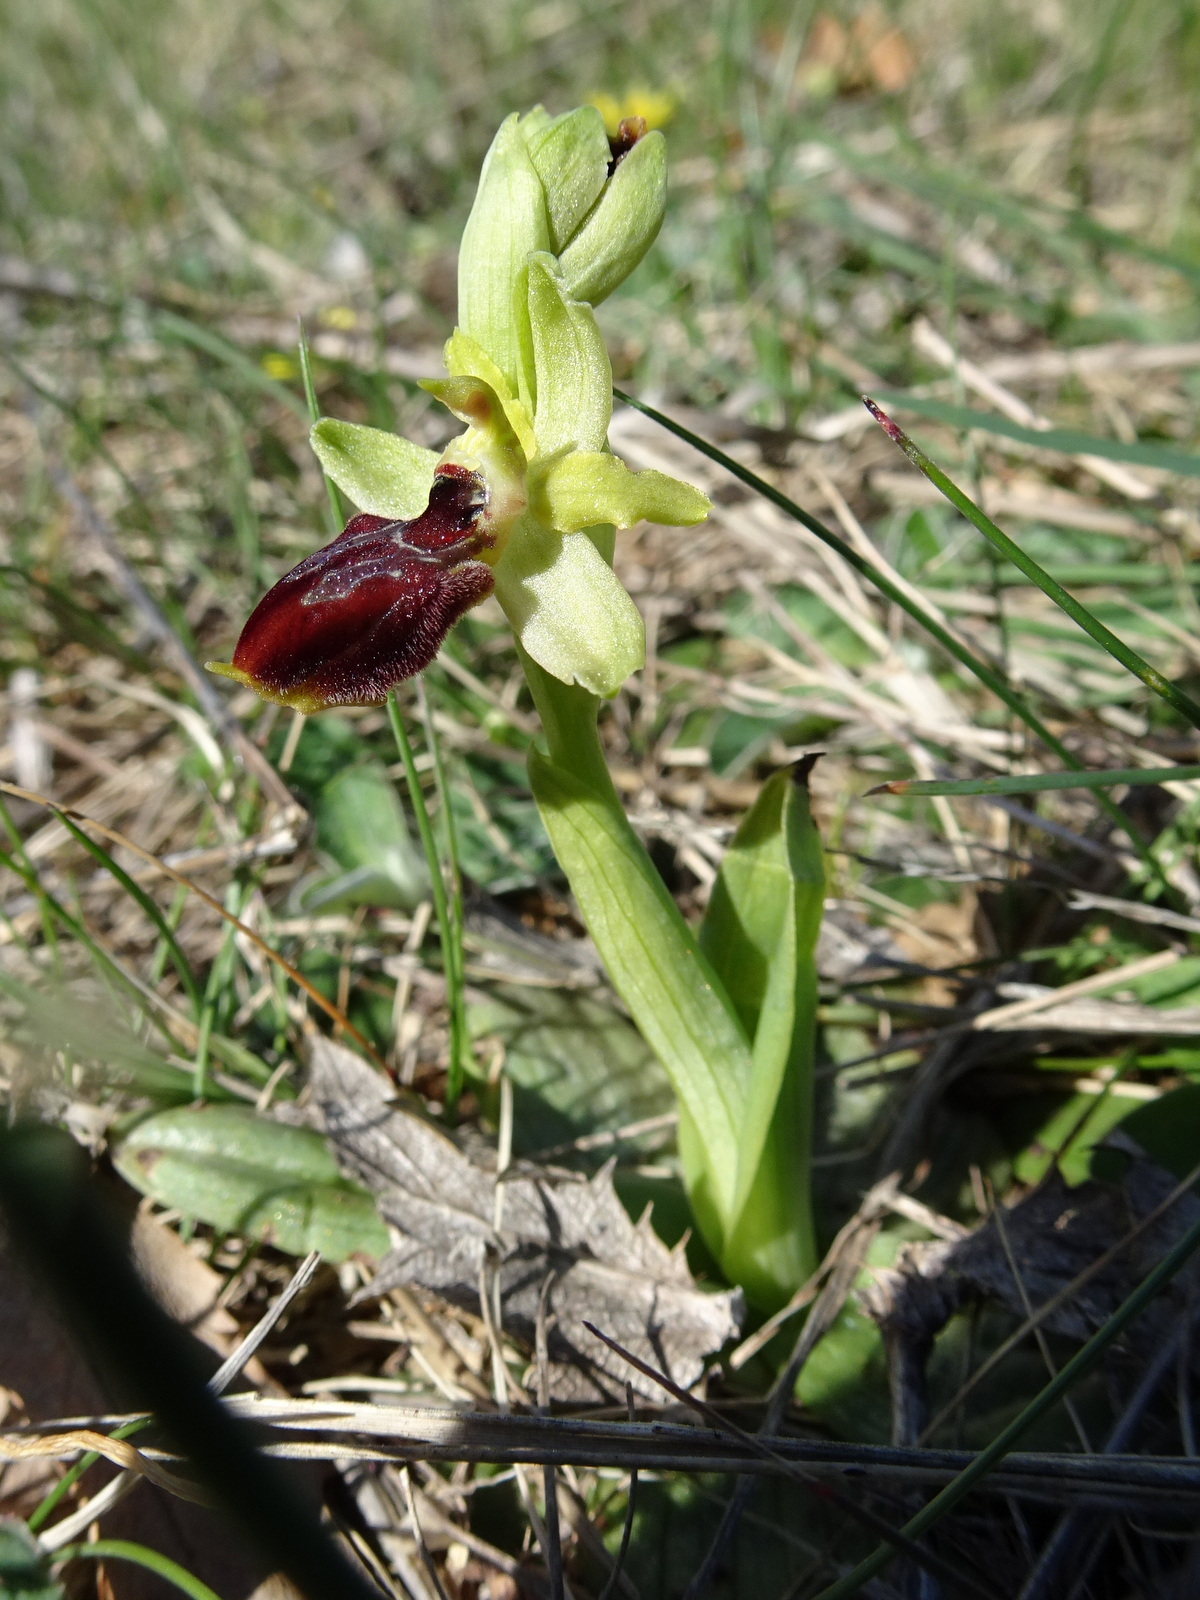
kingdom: Plantae
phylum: Tracheophyta
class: Liliopsida
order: Asparagales
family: Orchidaceae
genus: Ophrys
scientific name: Ophrys sphegodes
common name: Early spider-orchid
